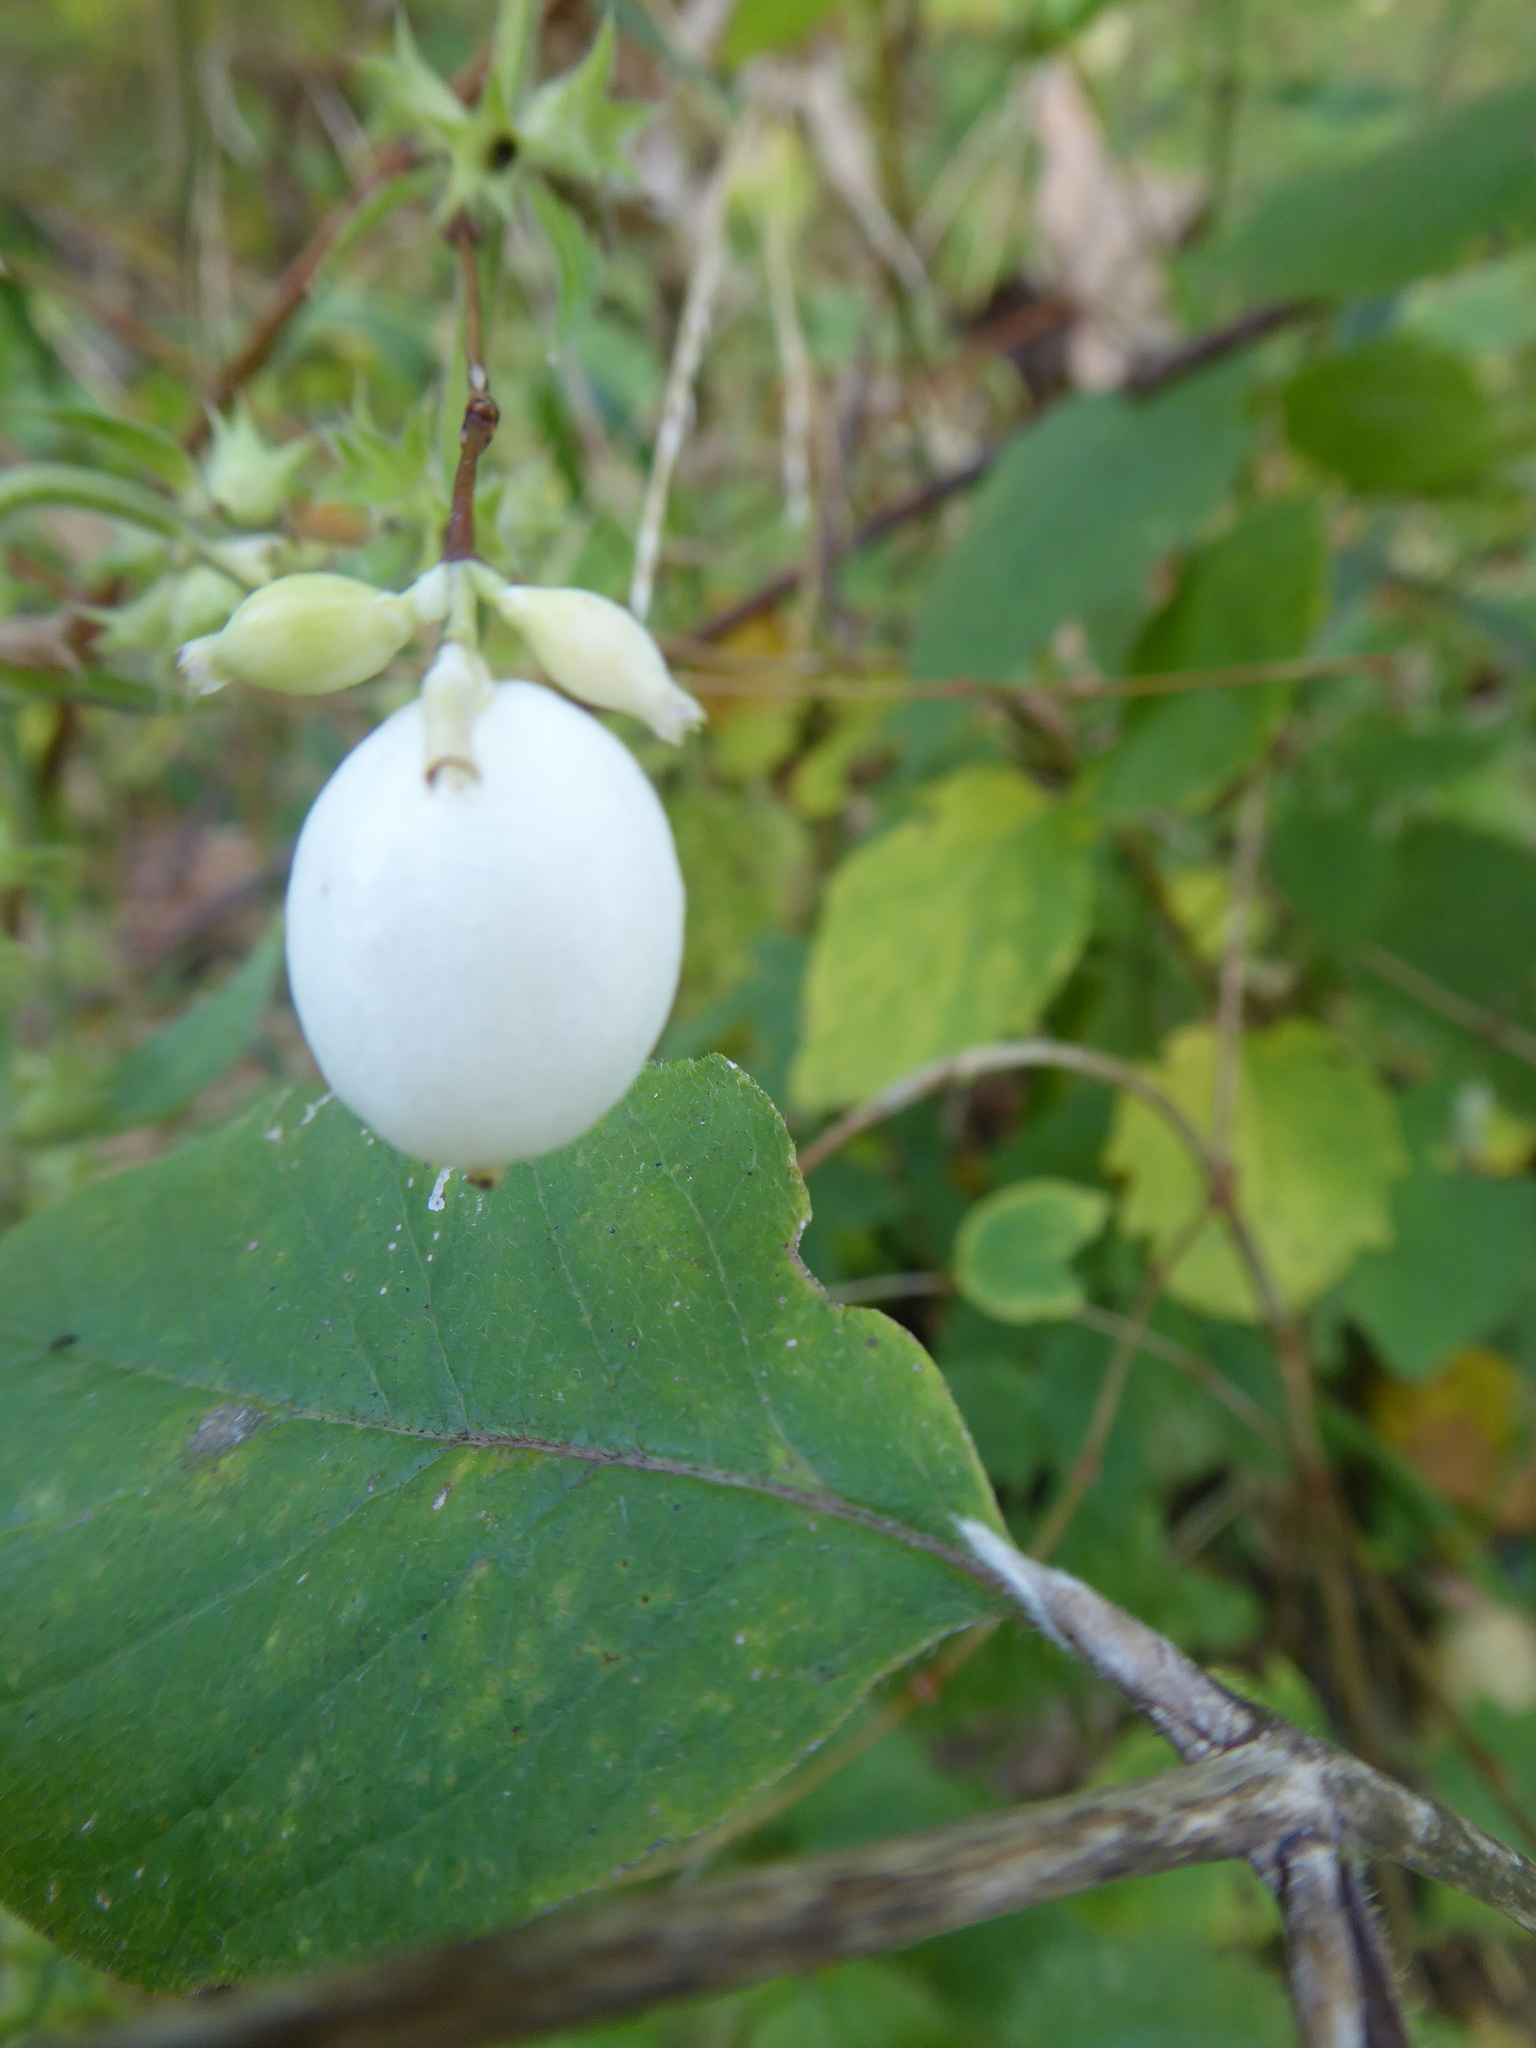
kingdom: Plantae
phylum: Tracheophyta
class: Magnoliopsida
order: Dipsacales
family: Caprifoliaceae
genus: Symphoricarpos
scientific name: Symphoricarpos albus
